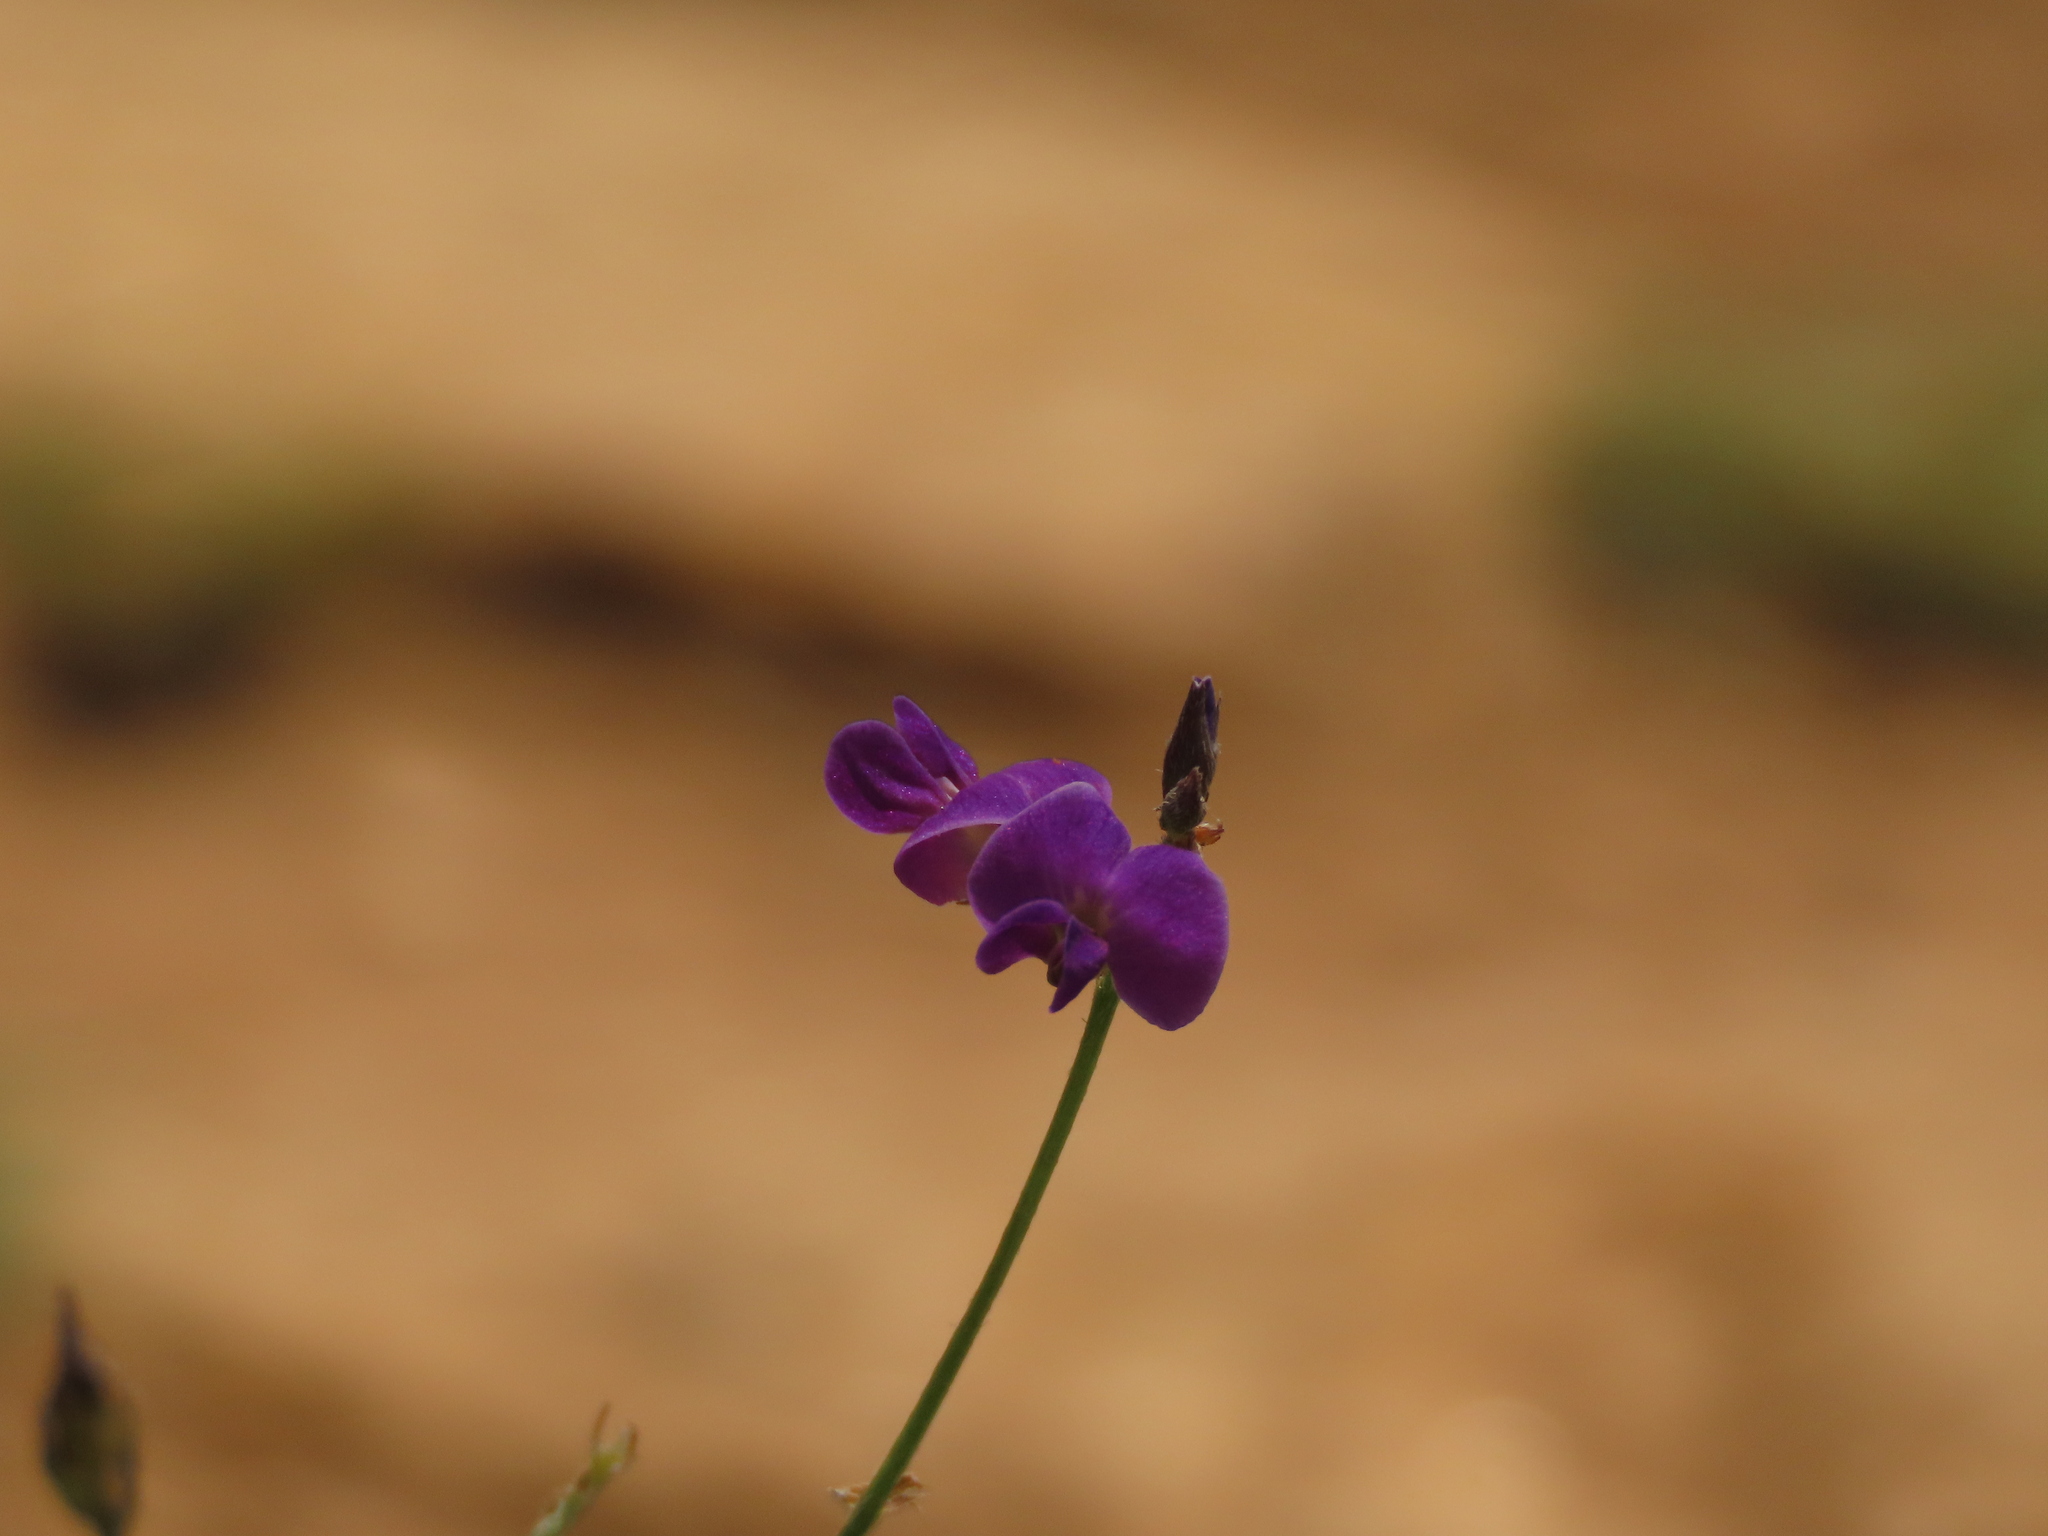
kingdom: Plantae
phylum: Tracheophyta
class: Magnoliopsida
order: Fabales
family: Fabaceae
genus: Glycine
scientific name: Glycine tabacina
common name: Pea glycine
